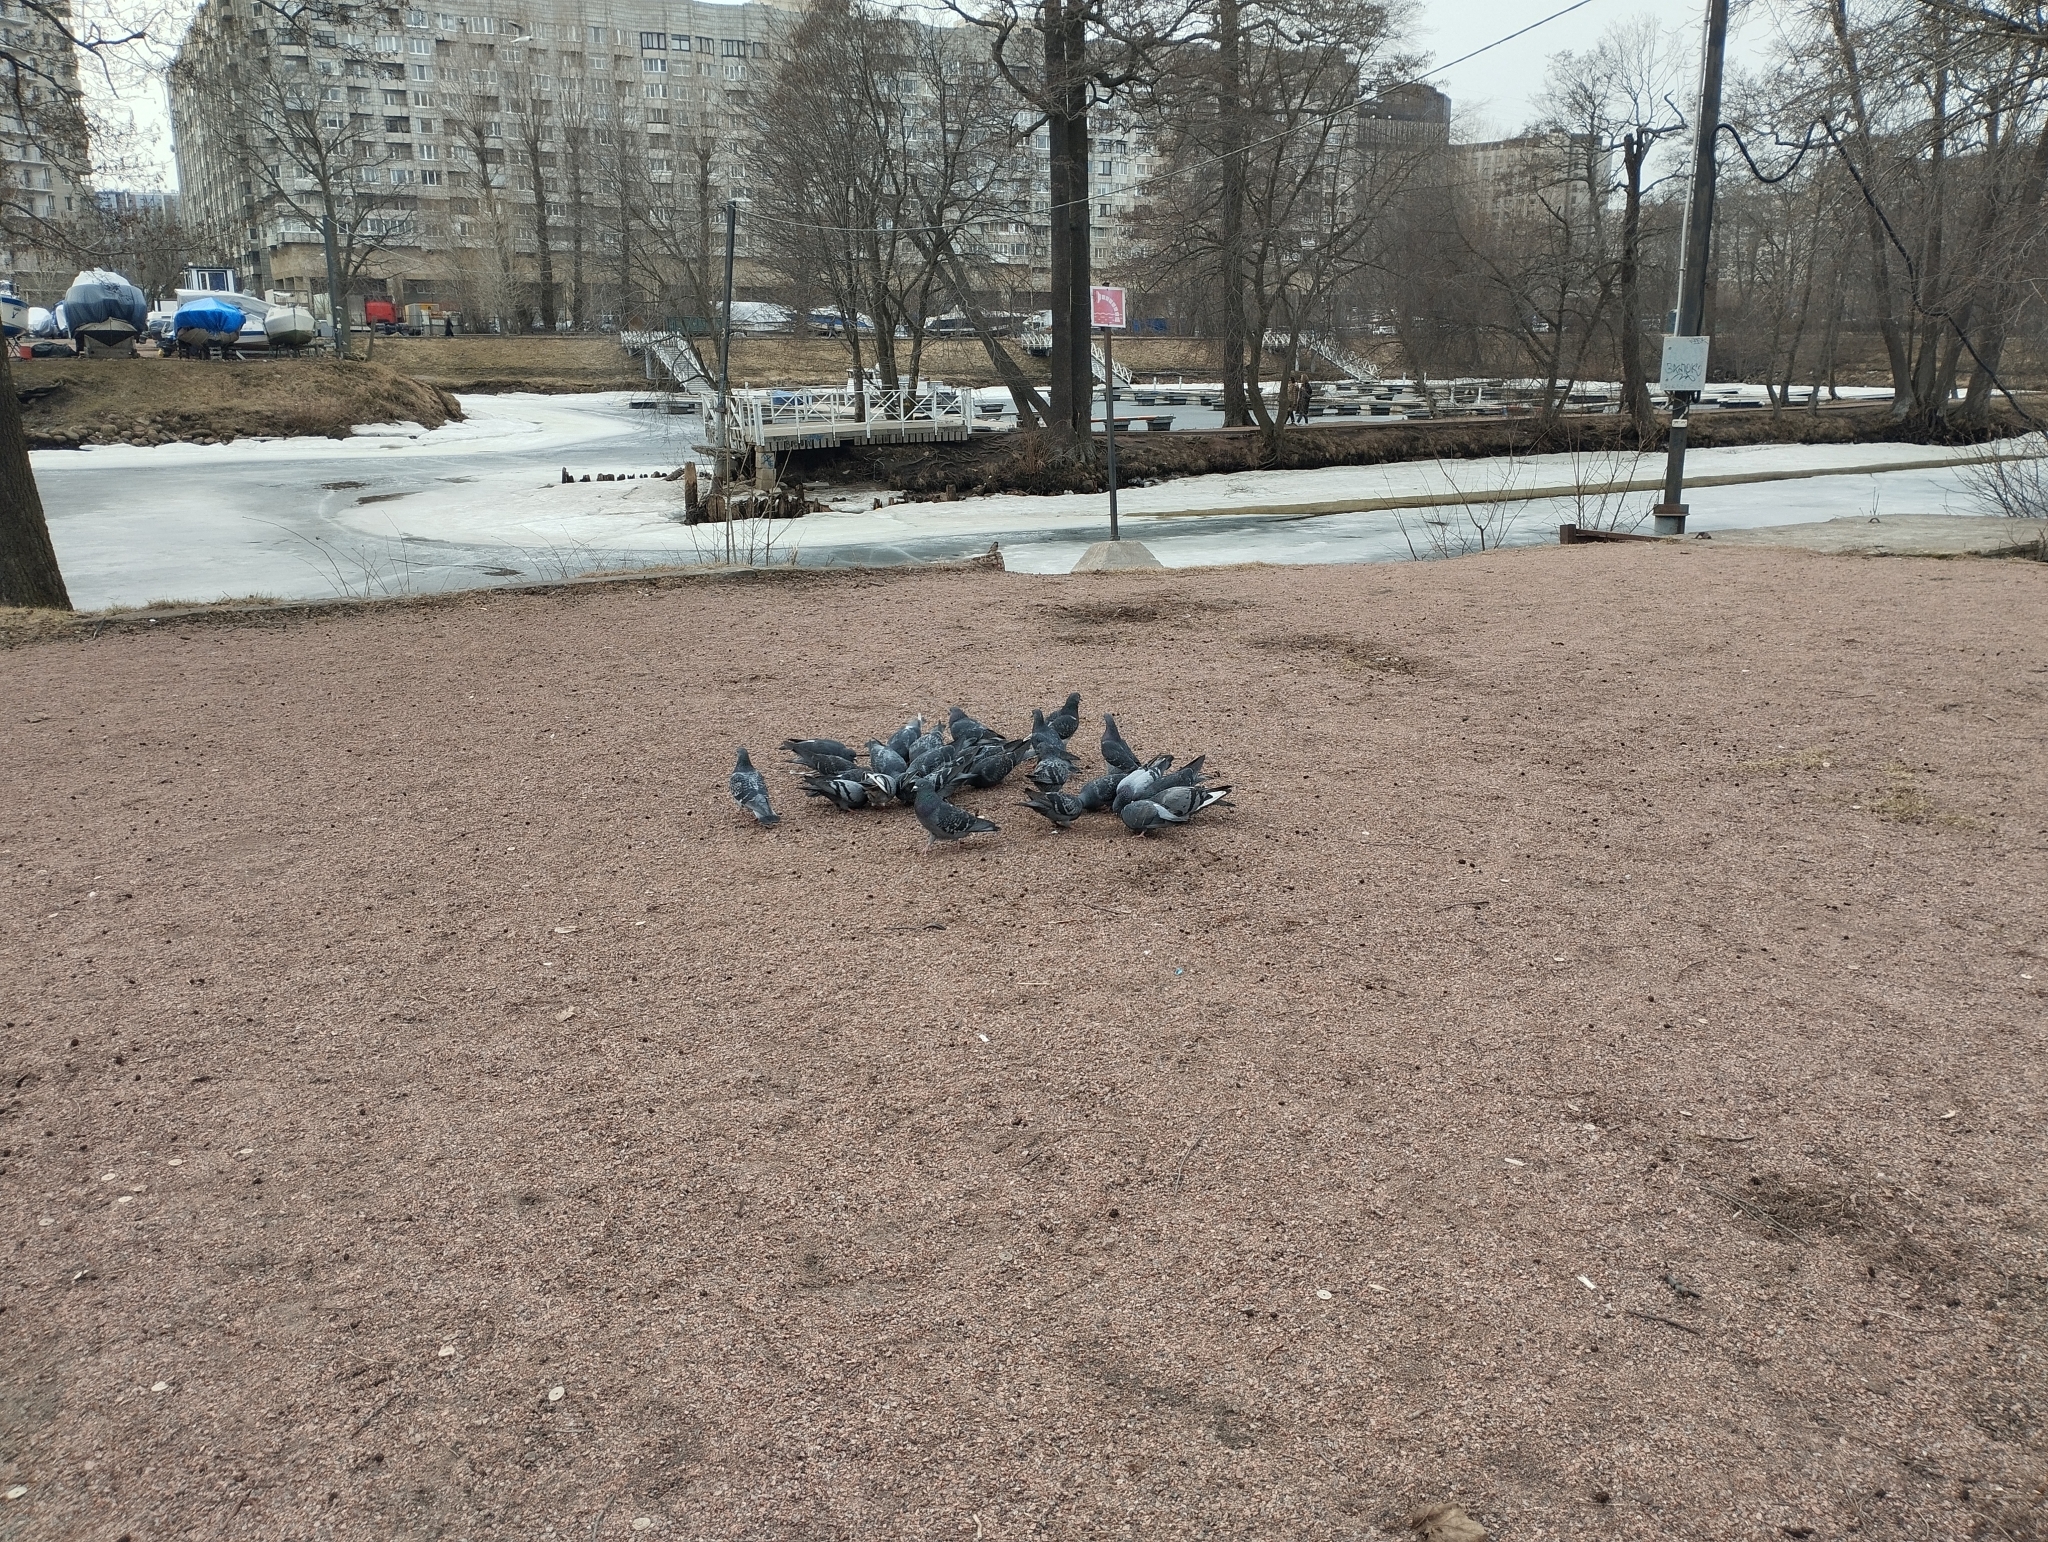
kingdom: Animalia
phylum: Chordata
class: Aves
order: Columbiformes
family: Columbidae
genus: Columba
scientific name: Columba livia
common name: Rock pigeon
